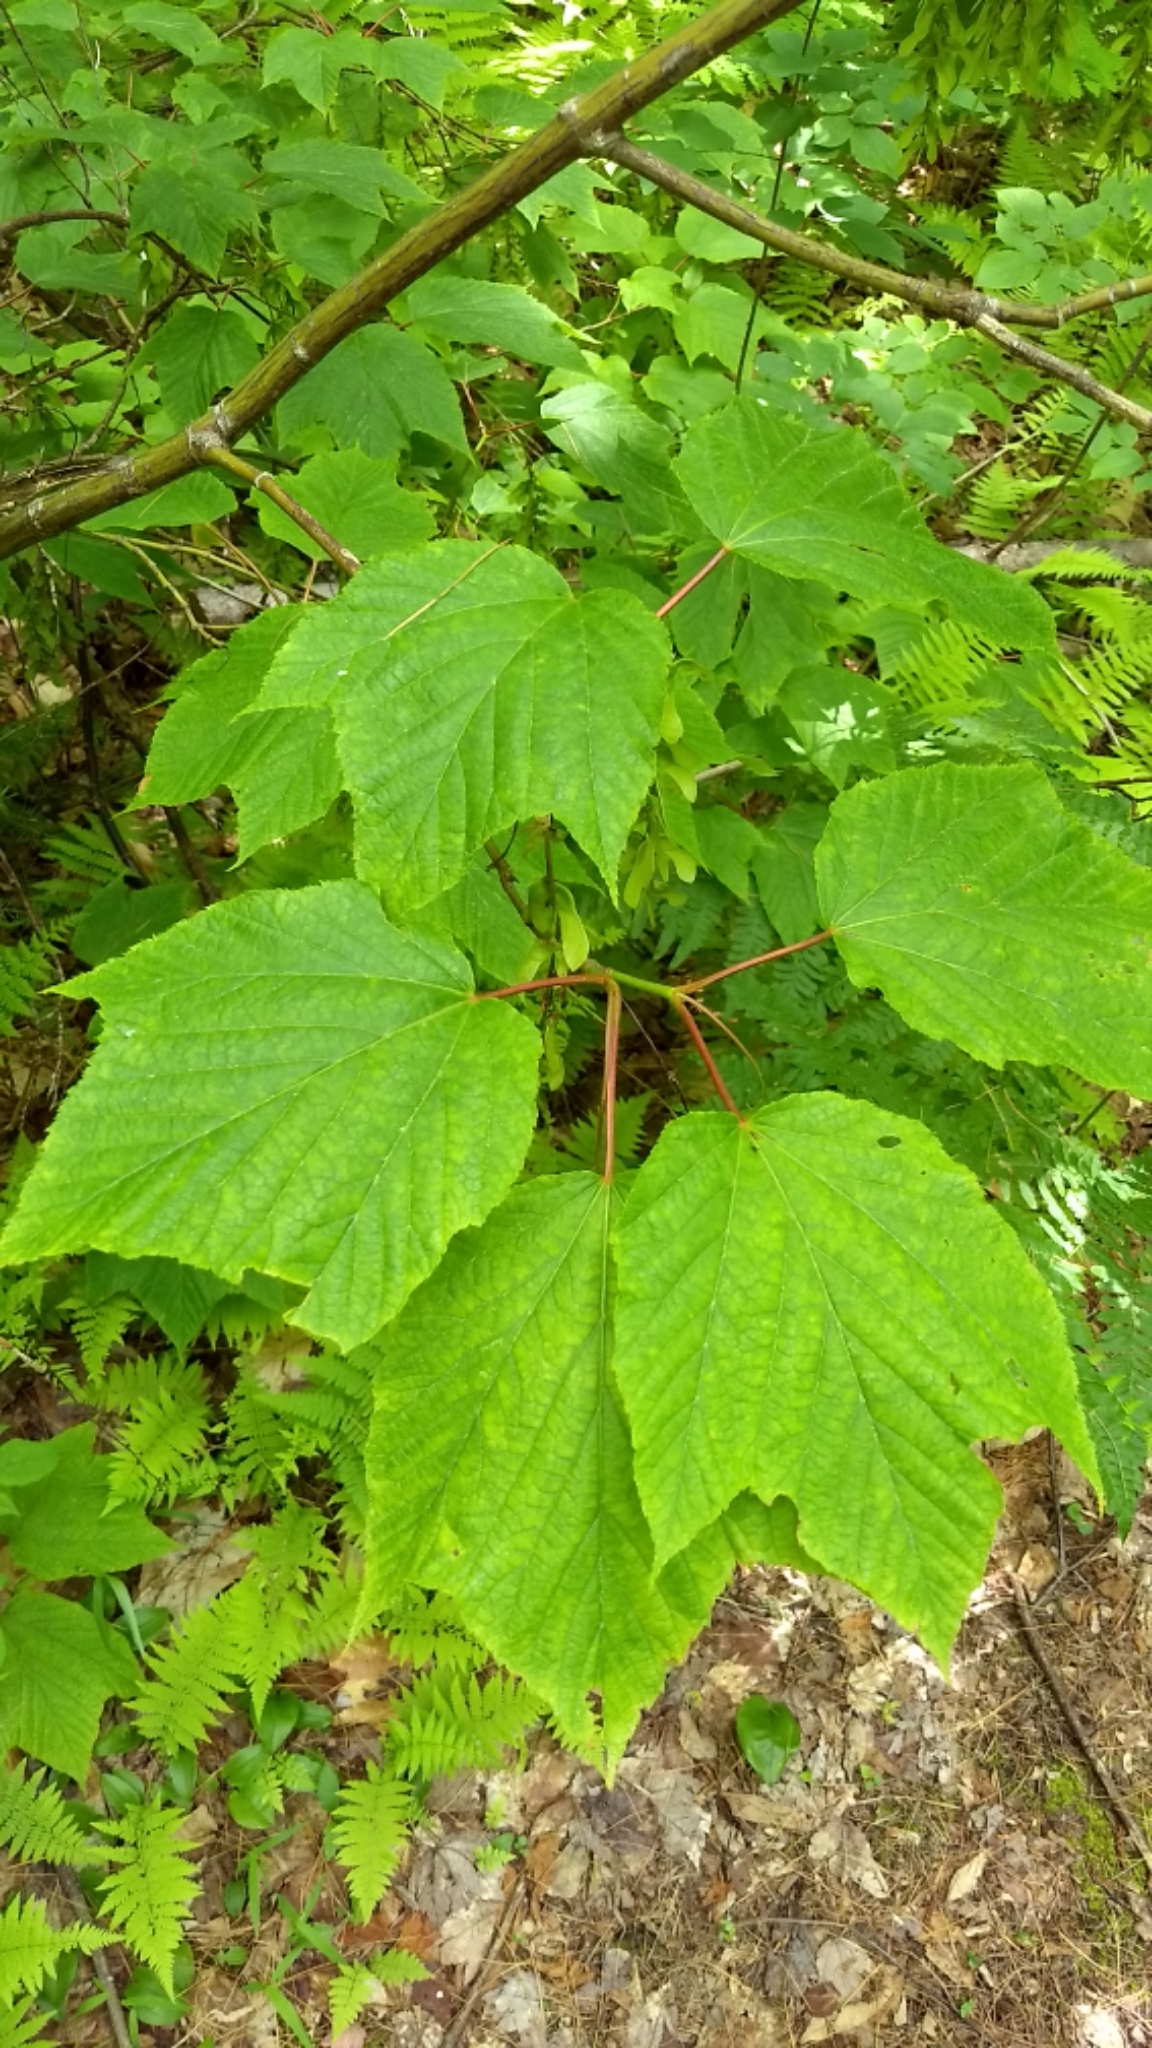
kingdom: Plantae
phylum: Tracheophyta
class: Magnoliopsida
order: Sapindales
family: Sapindaceae
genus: Acer
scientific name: Acer pensylvanicum
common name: Moosewood
